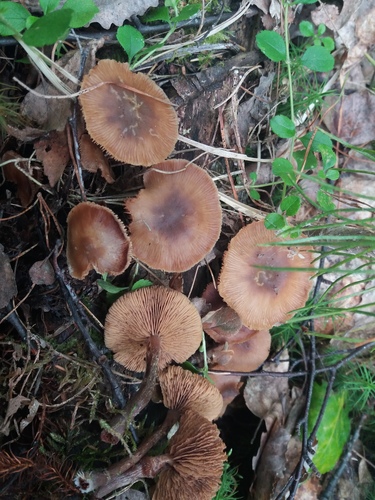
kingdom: Fungi
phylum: Basidiomycota
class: Agaricomycetes
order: Agaricales
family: Strophariaceae
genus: Pholiota
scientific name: Pholiota lignicola
